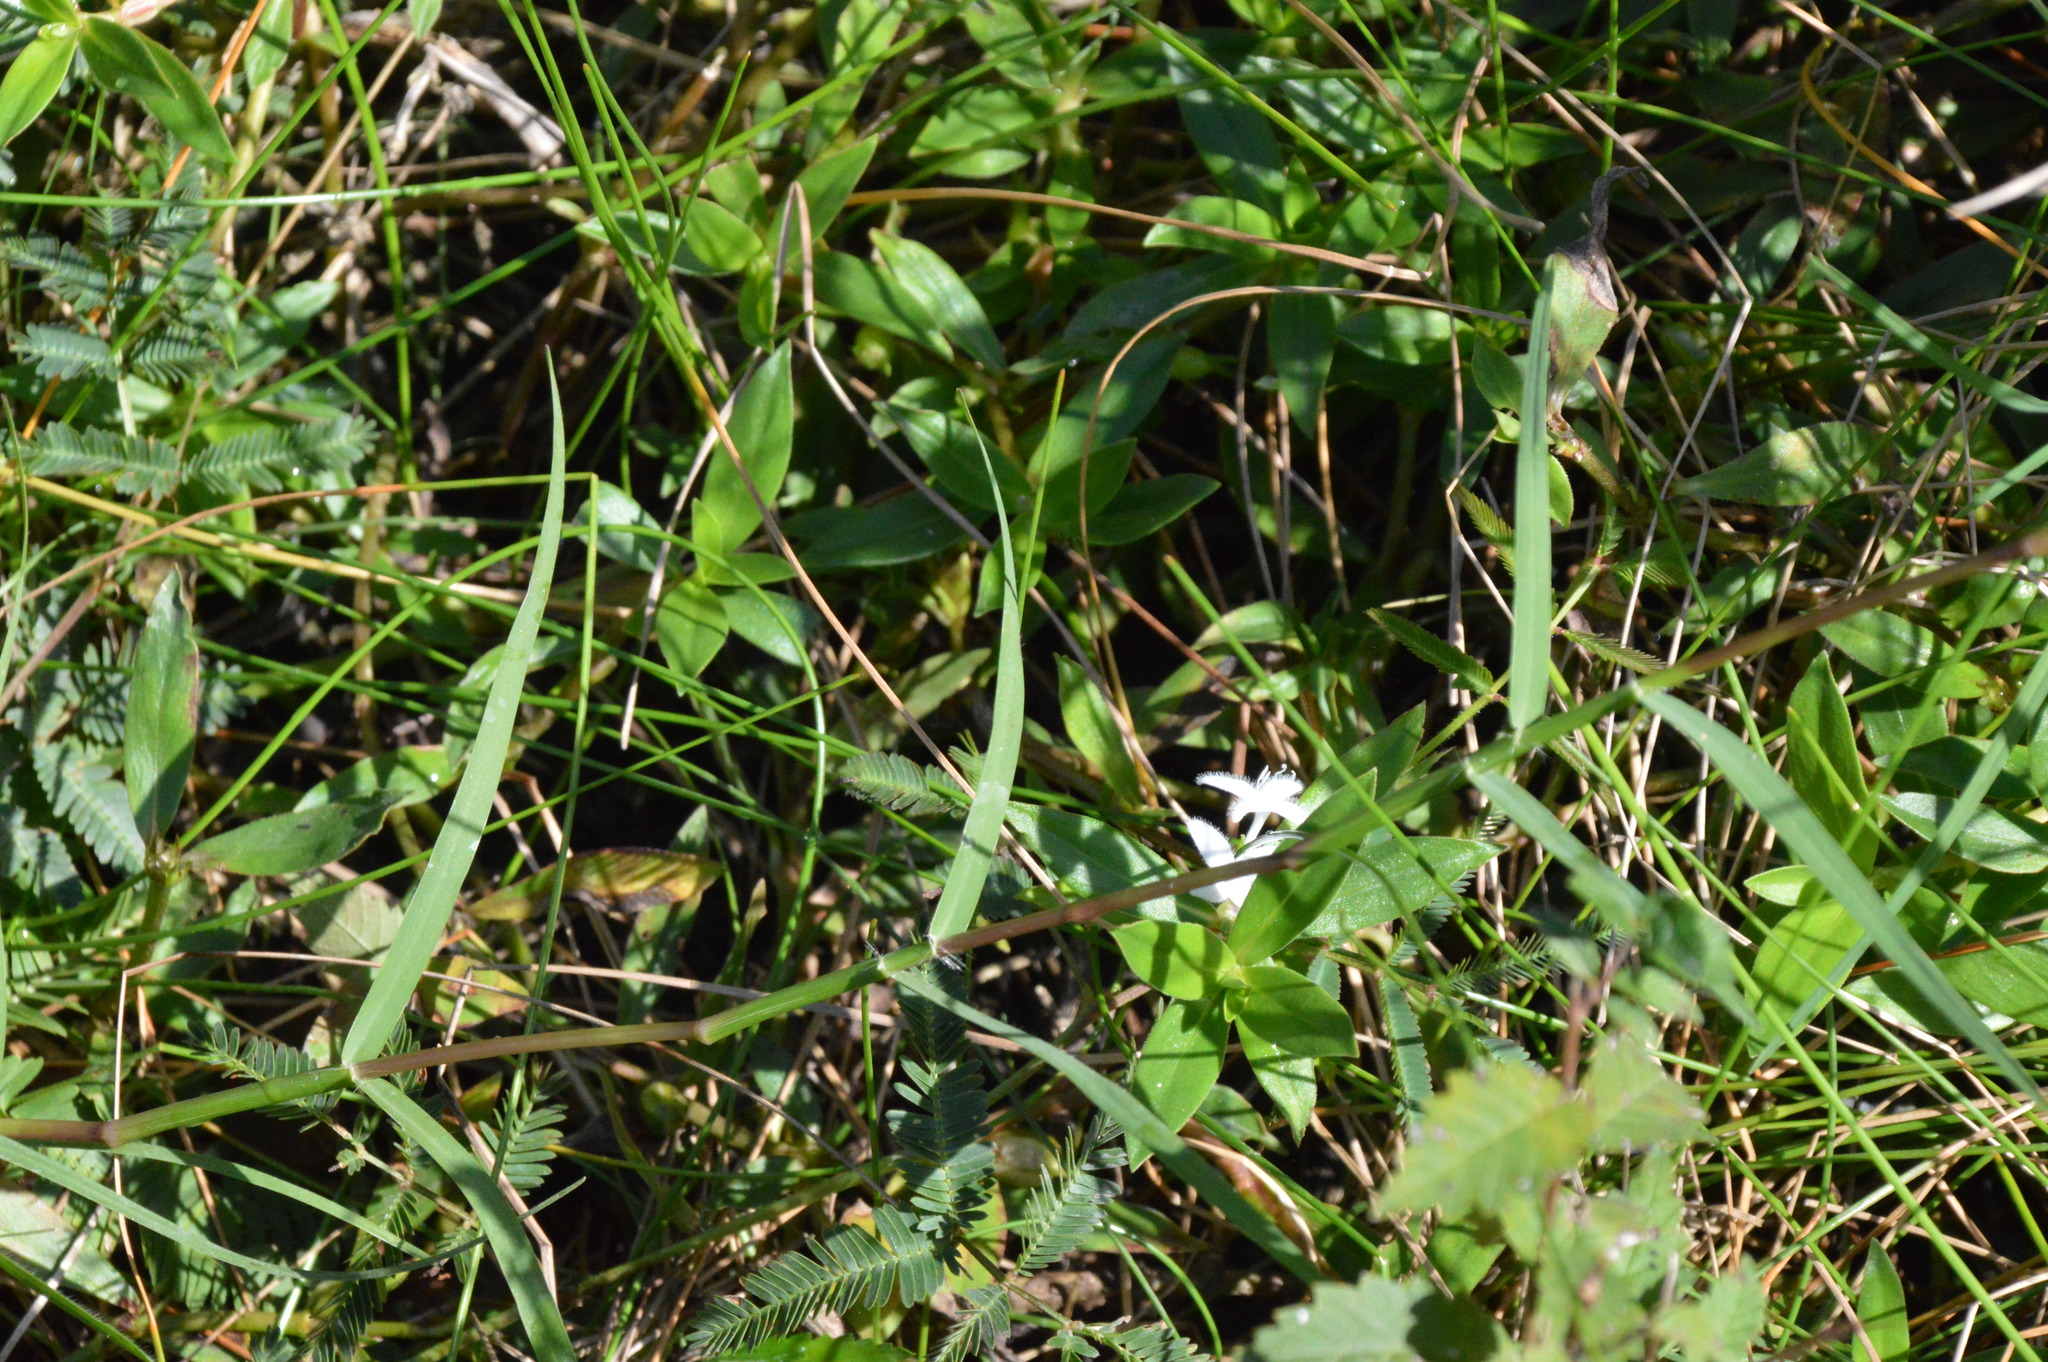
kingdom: Plantae
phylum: Tracheophyta
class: Magnoliopsida
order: Gentianales
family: Rubiaceae
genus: Diodia
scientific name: Diodia virginiana
